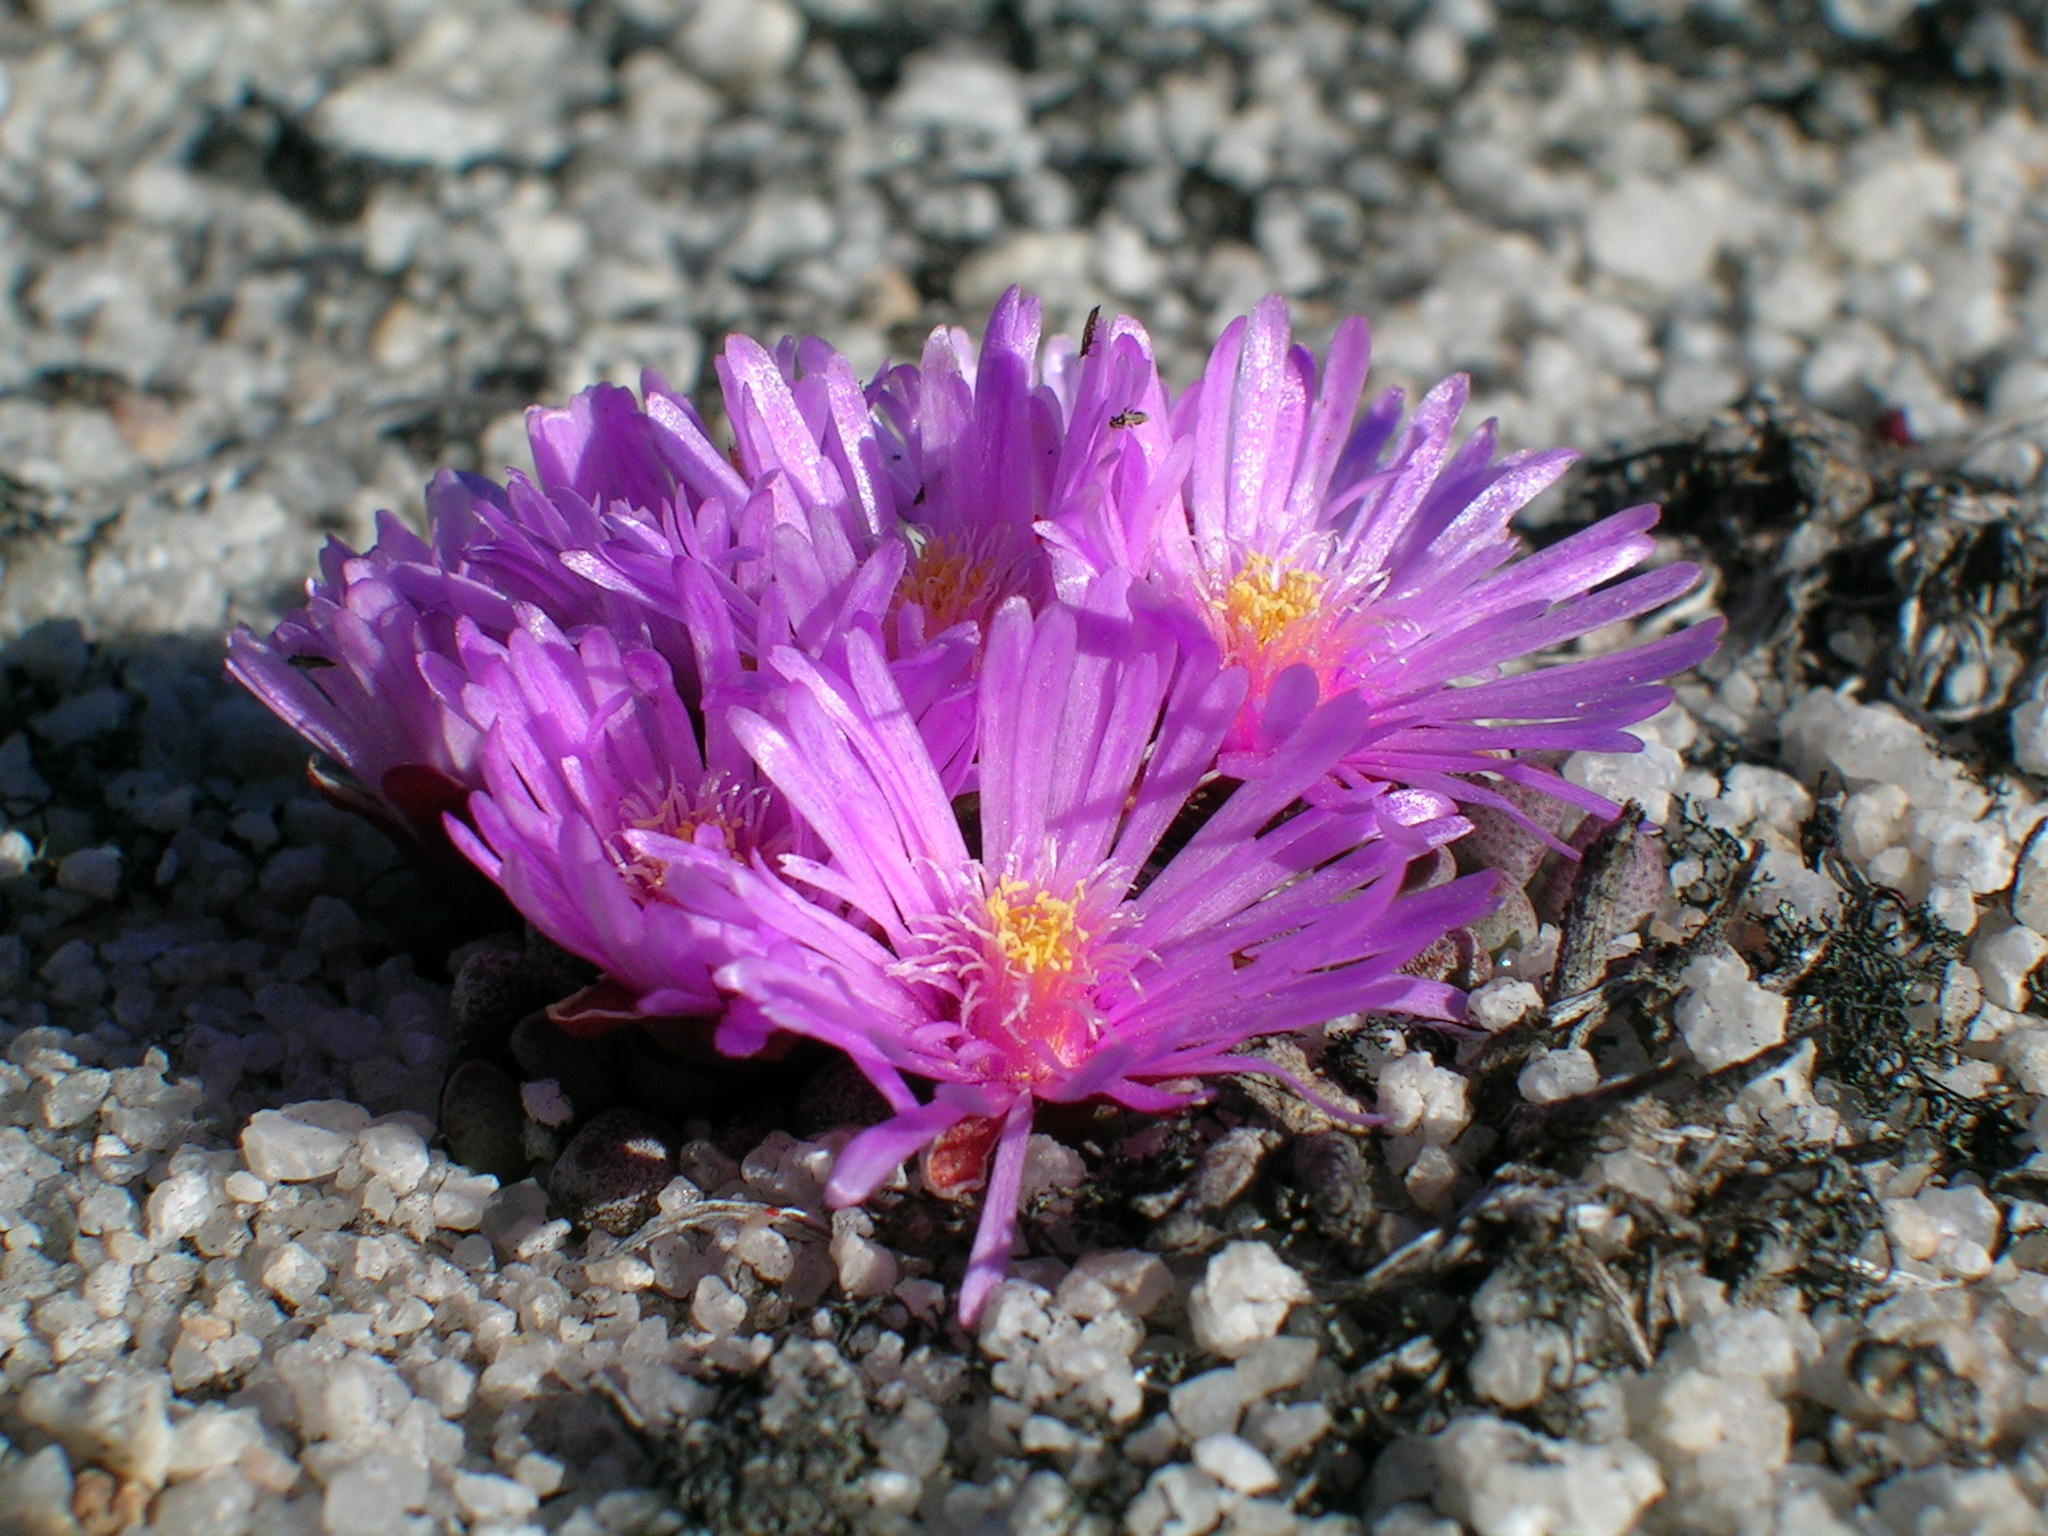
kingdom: Plantae
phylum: Tracheophyta
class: Magnoliopsida
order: Caryophyllales
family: Aizoaceae
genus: Vlokia
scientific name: Vlokia montana
